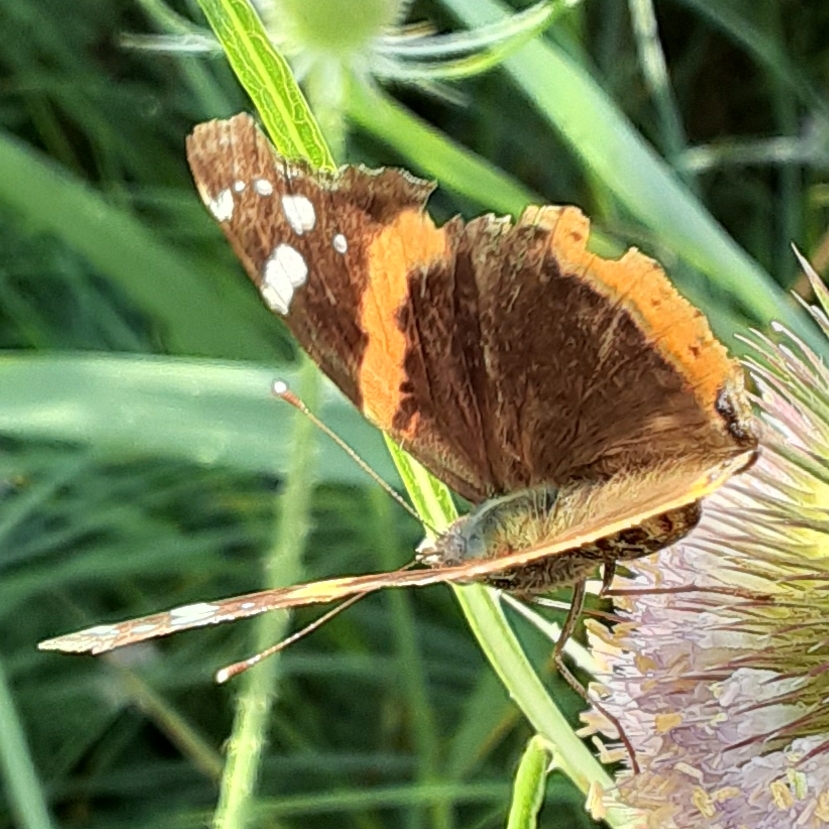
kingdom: Animalia
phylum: Arthropoda
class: Insecta
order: Lepidoptera
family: Nymphalidae
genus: Vanessa
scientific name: Vanessa atalanta
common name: Red admiral
